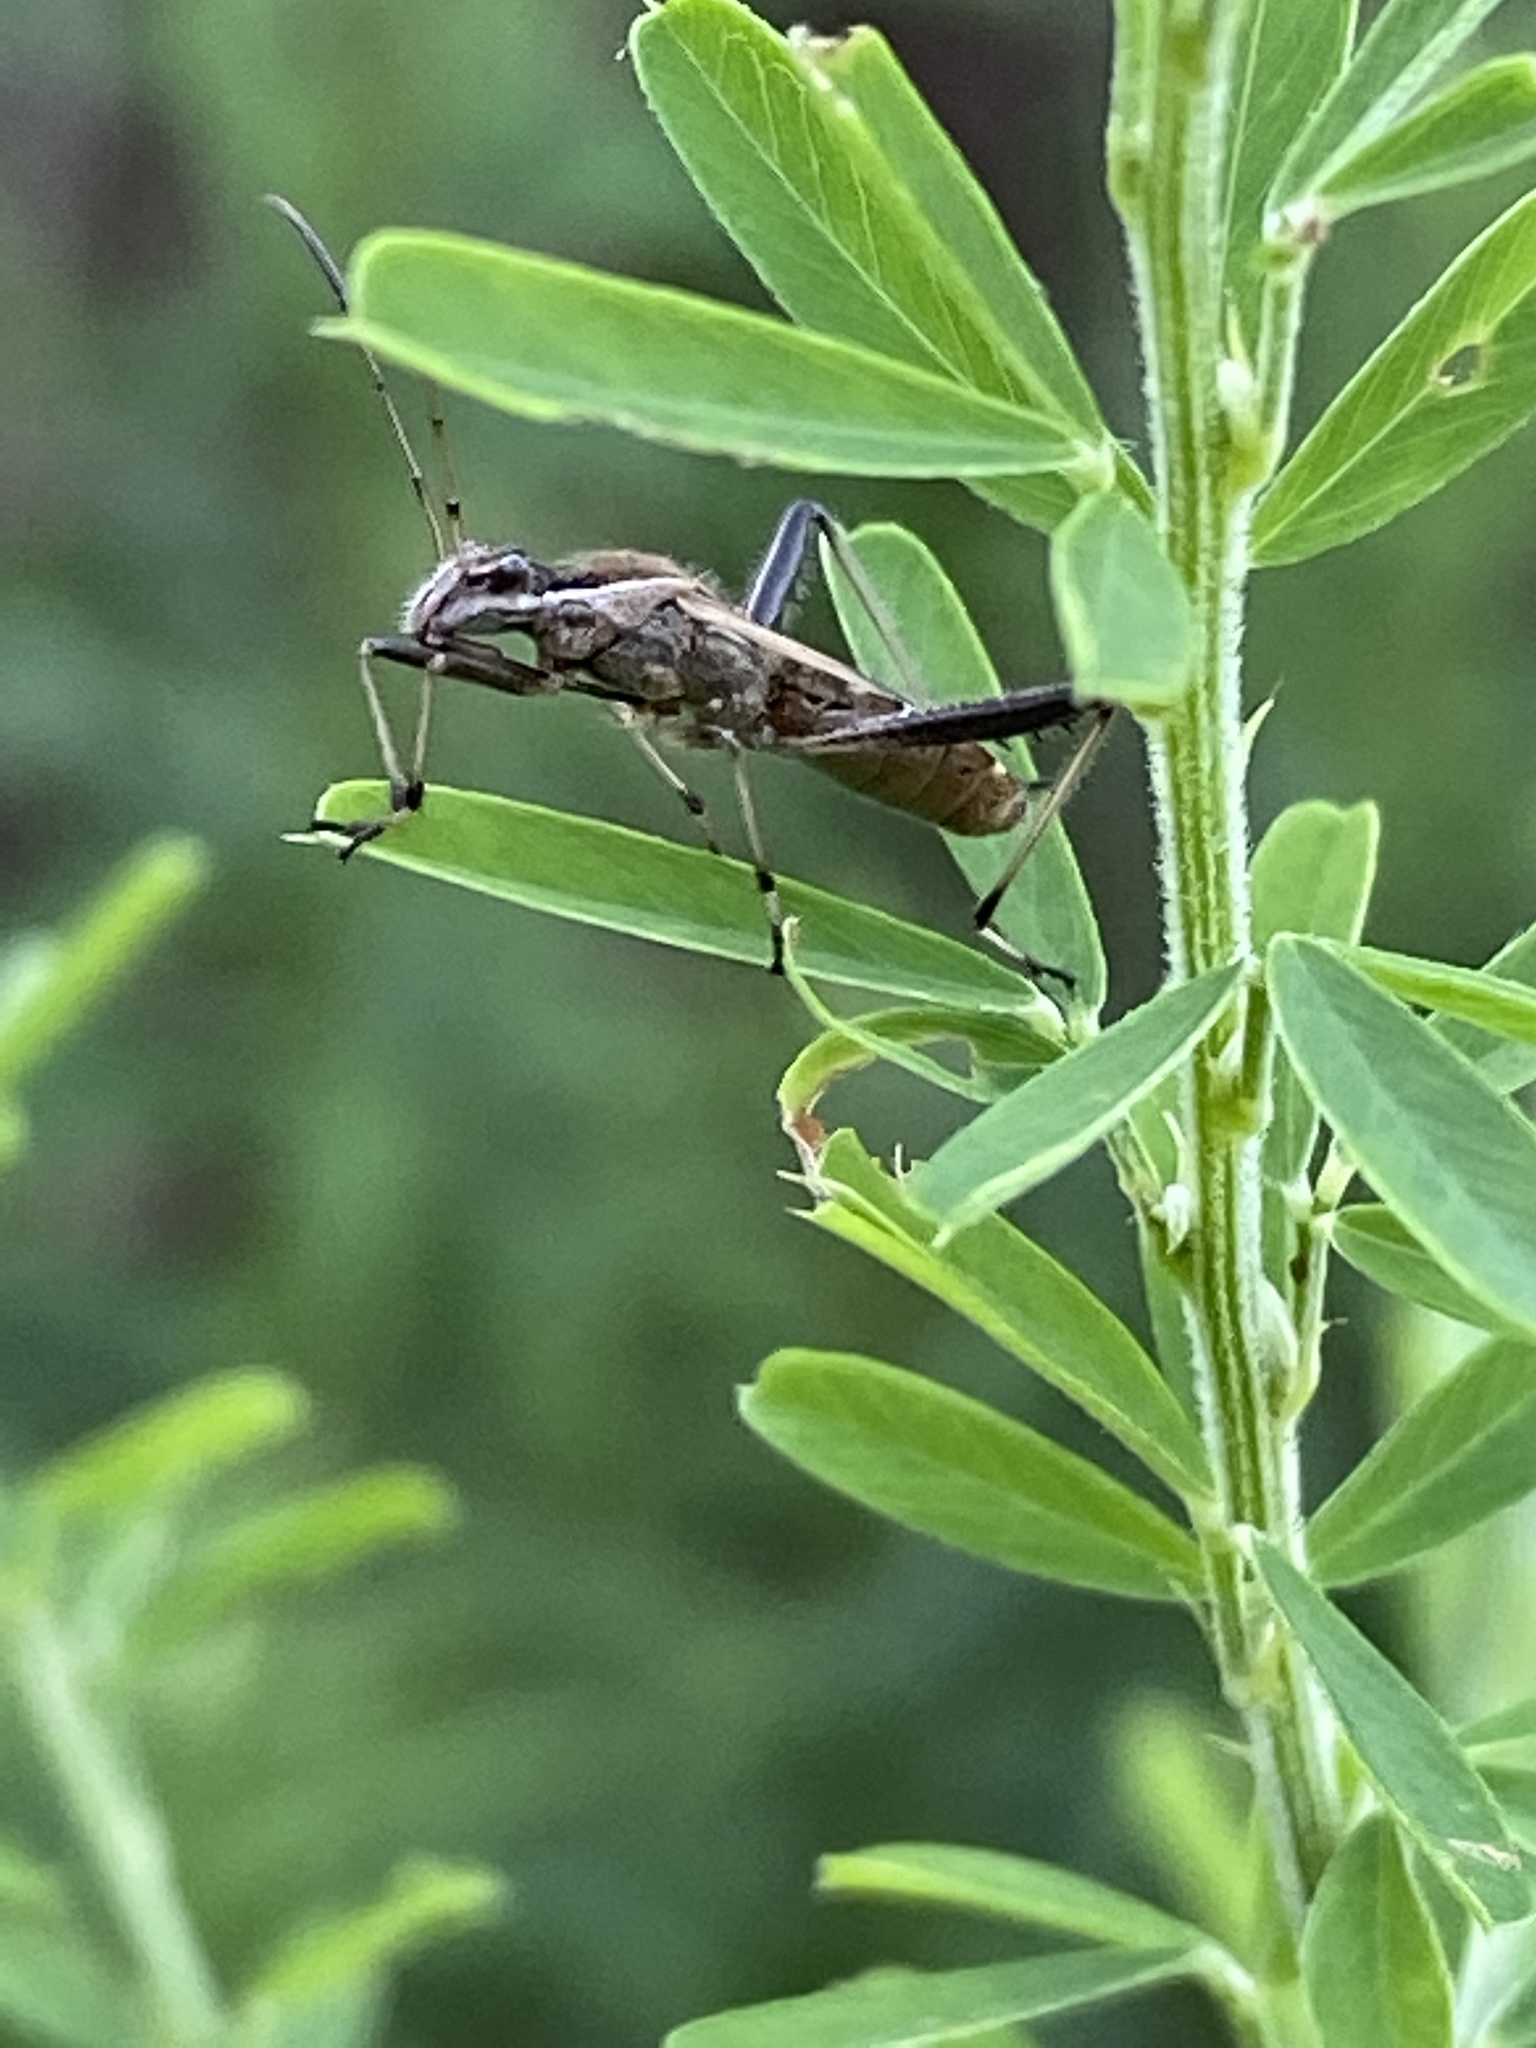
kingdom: Animalia
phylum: Arthropoda
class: Insecta
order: Hemiptera
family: Alydidae
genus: Alydus
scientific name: Alydus pilosulus
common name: Broad-headed bug
